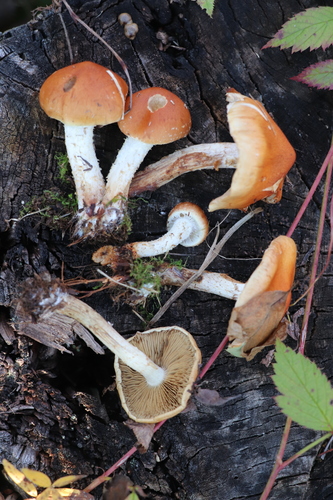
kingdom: Fungi
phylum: Basidiomycota
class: Agaricomycetes
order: Agaricales
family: Strophariaceae
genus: Pholiota
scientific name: Pholiota lubrica
